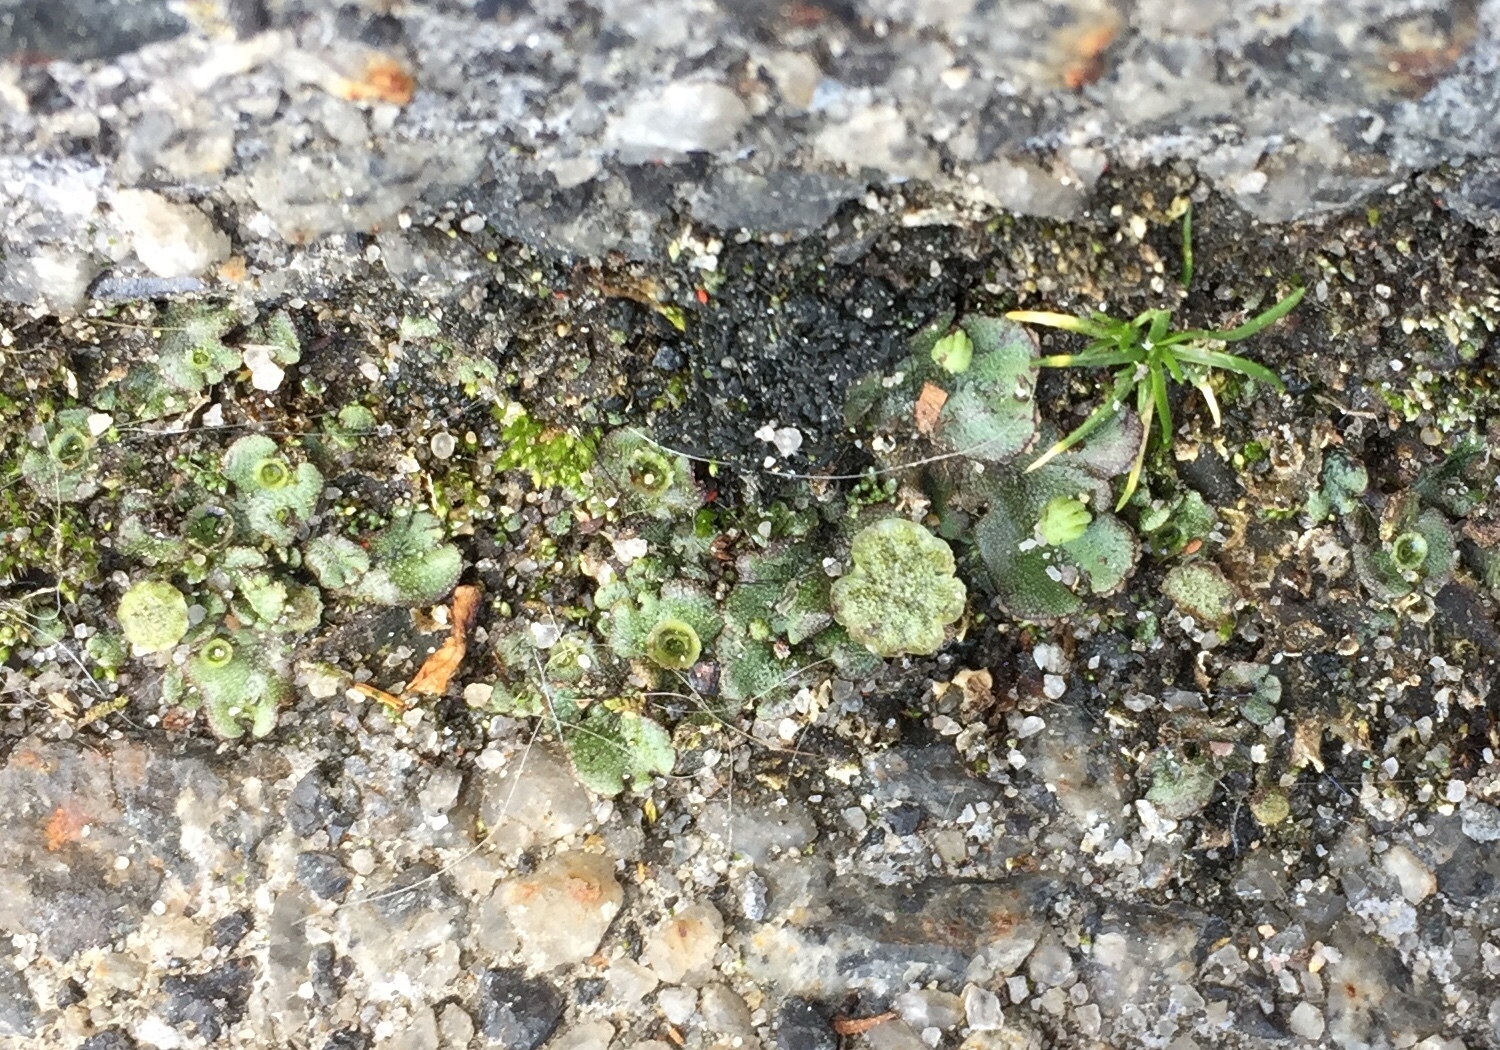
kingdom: Plantae
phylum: Marchantiophyta
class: Marchantiopsida
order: Marchantiales
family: Marchantiaceae
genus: Marchantia
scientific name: Marchantia polymorpha
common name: Common liverwort
